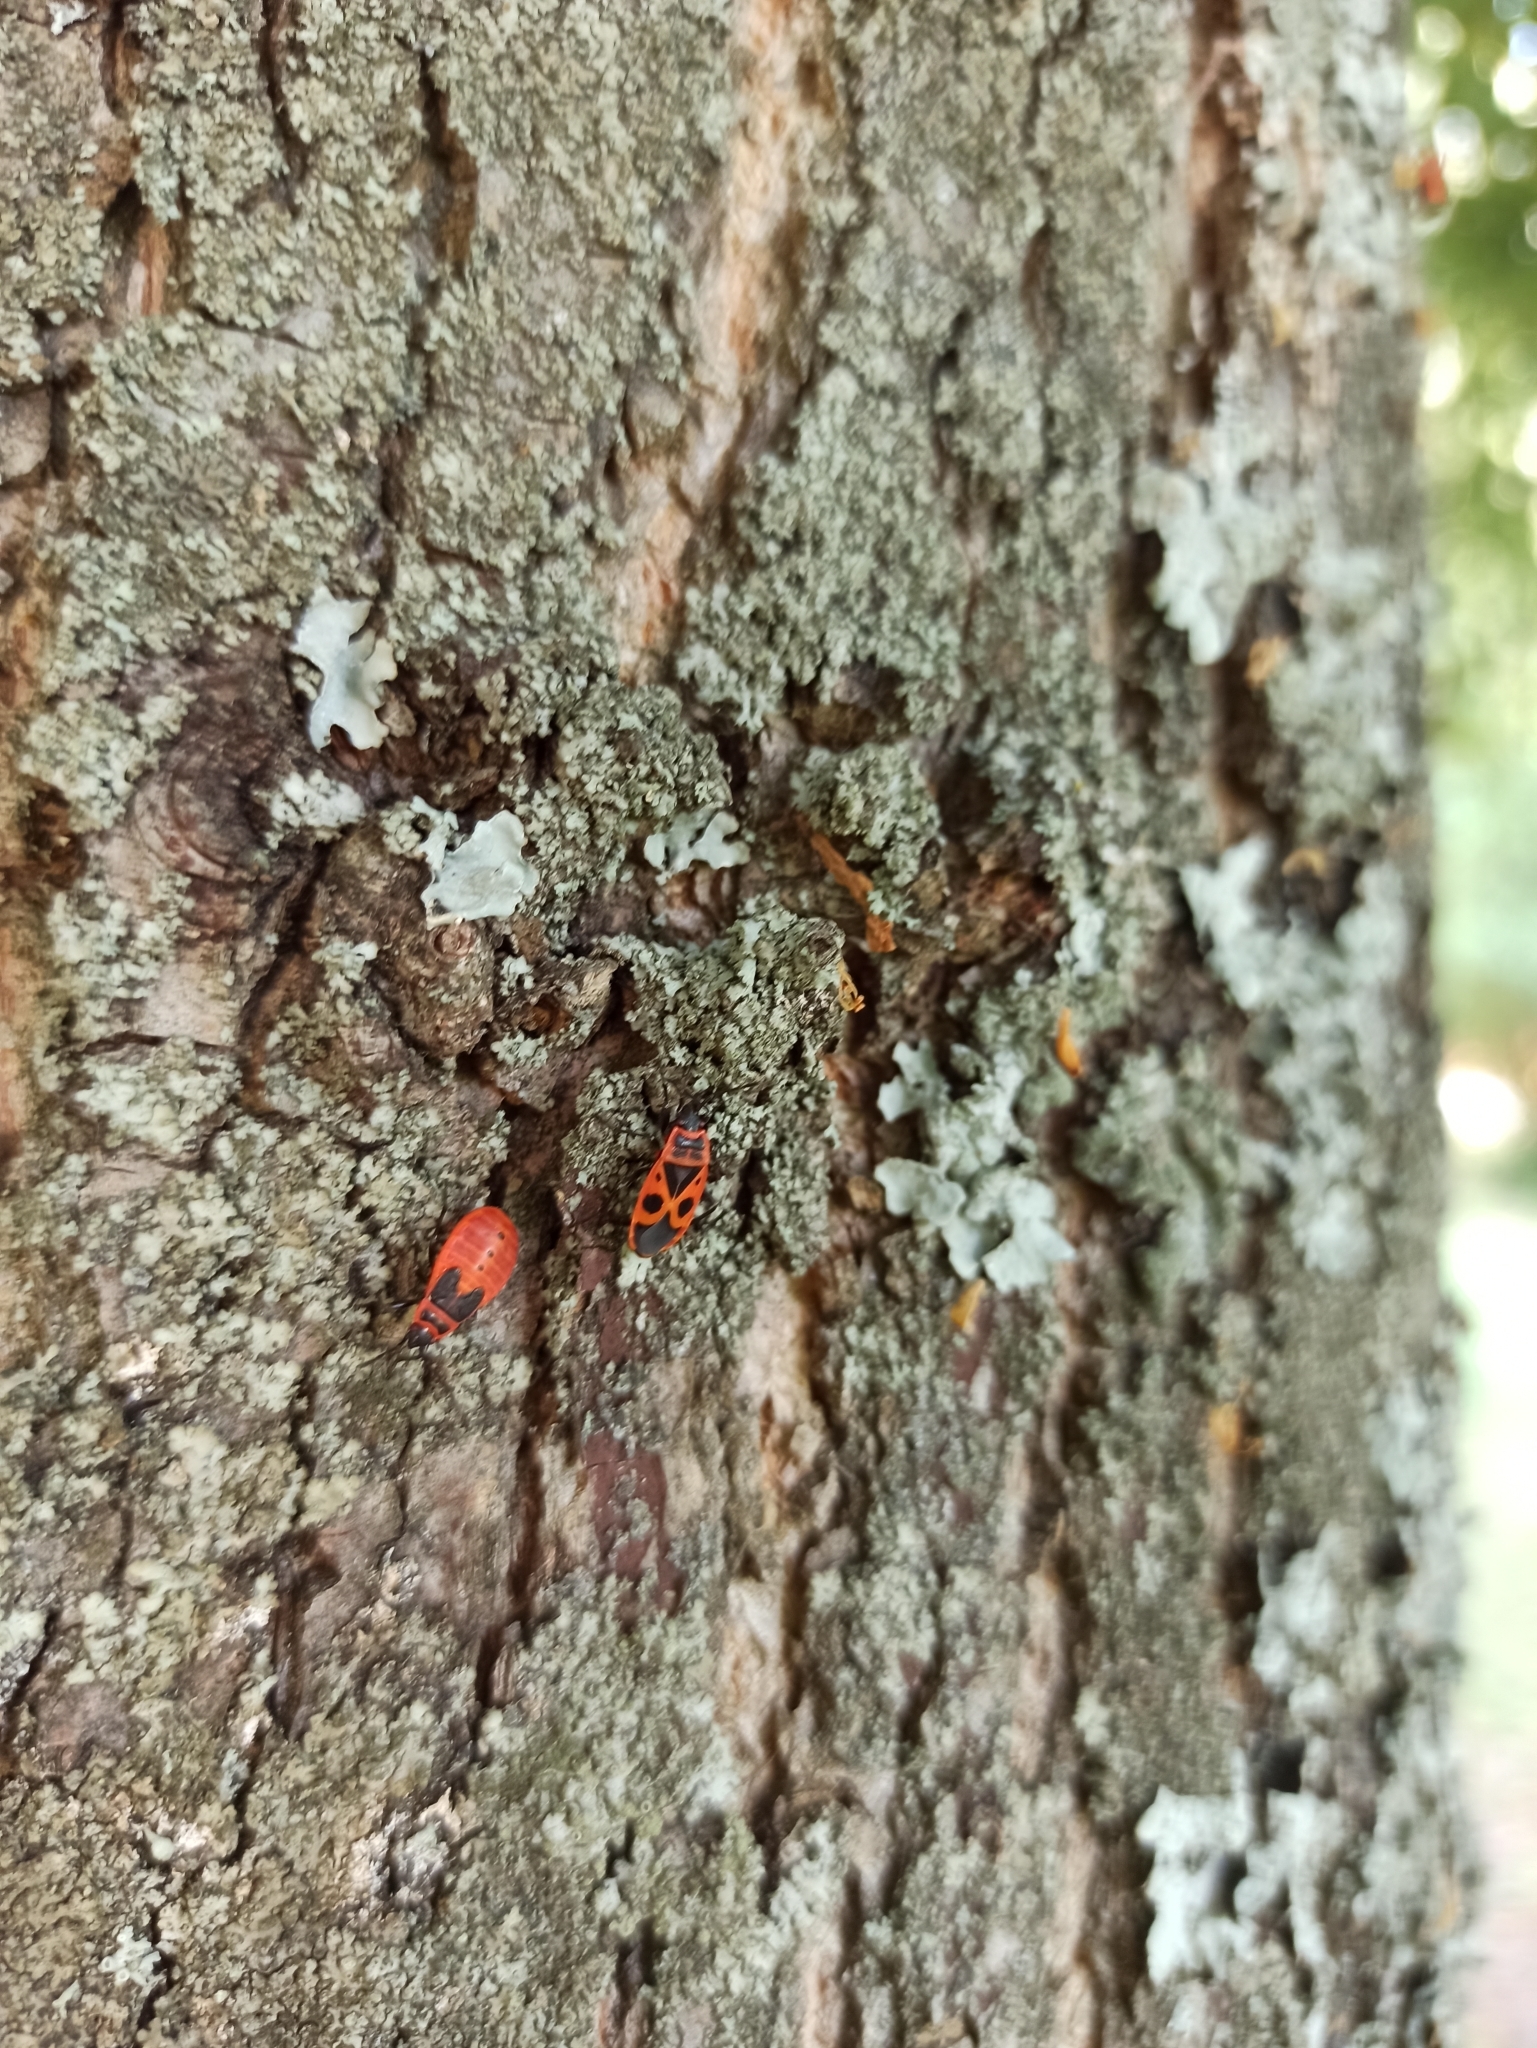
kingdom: Animalia
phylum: Arthropoda
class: Insecta
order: Hemiptera
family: Pyrrhocoridae
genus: Pyrrhocoris
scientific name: Pyrrhocoris apterus
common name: Firebug
